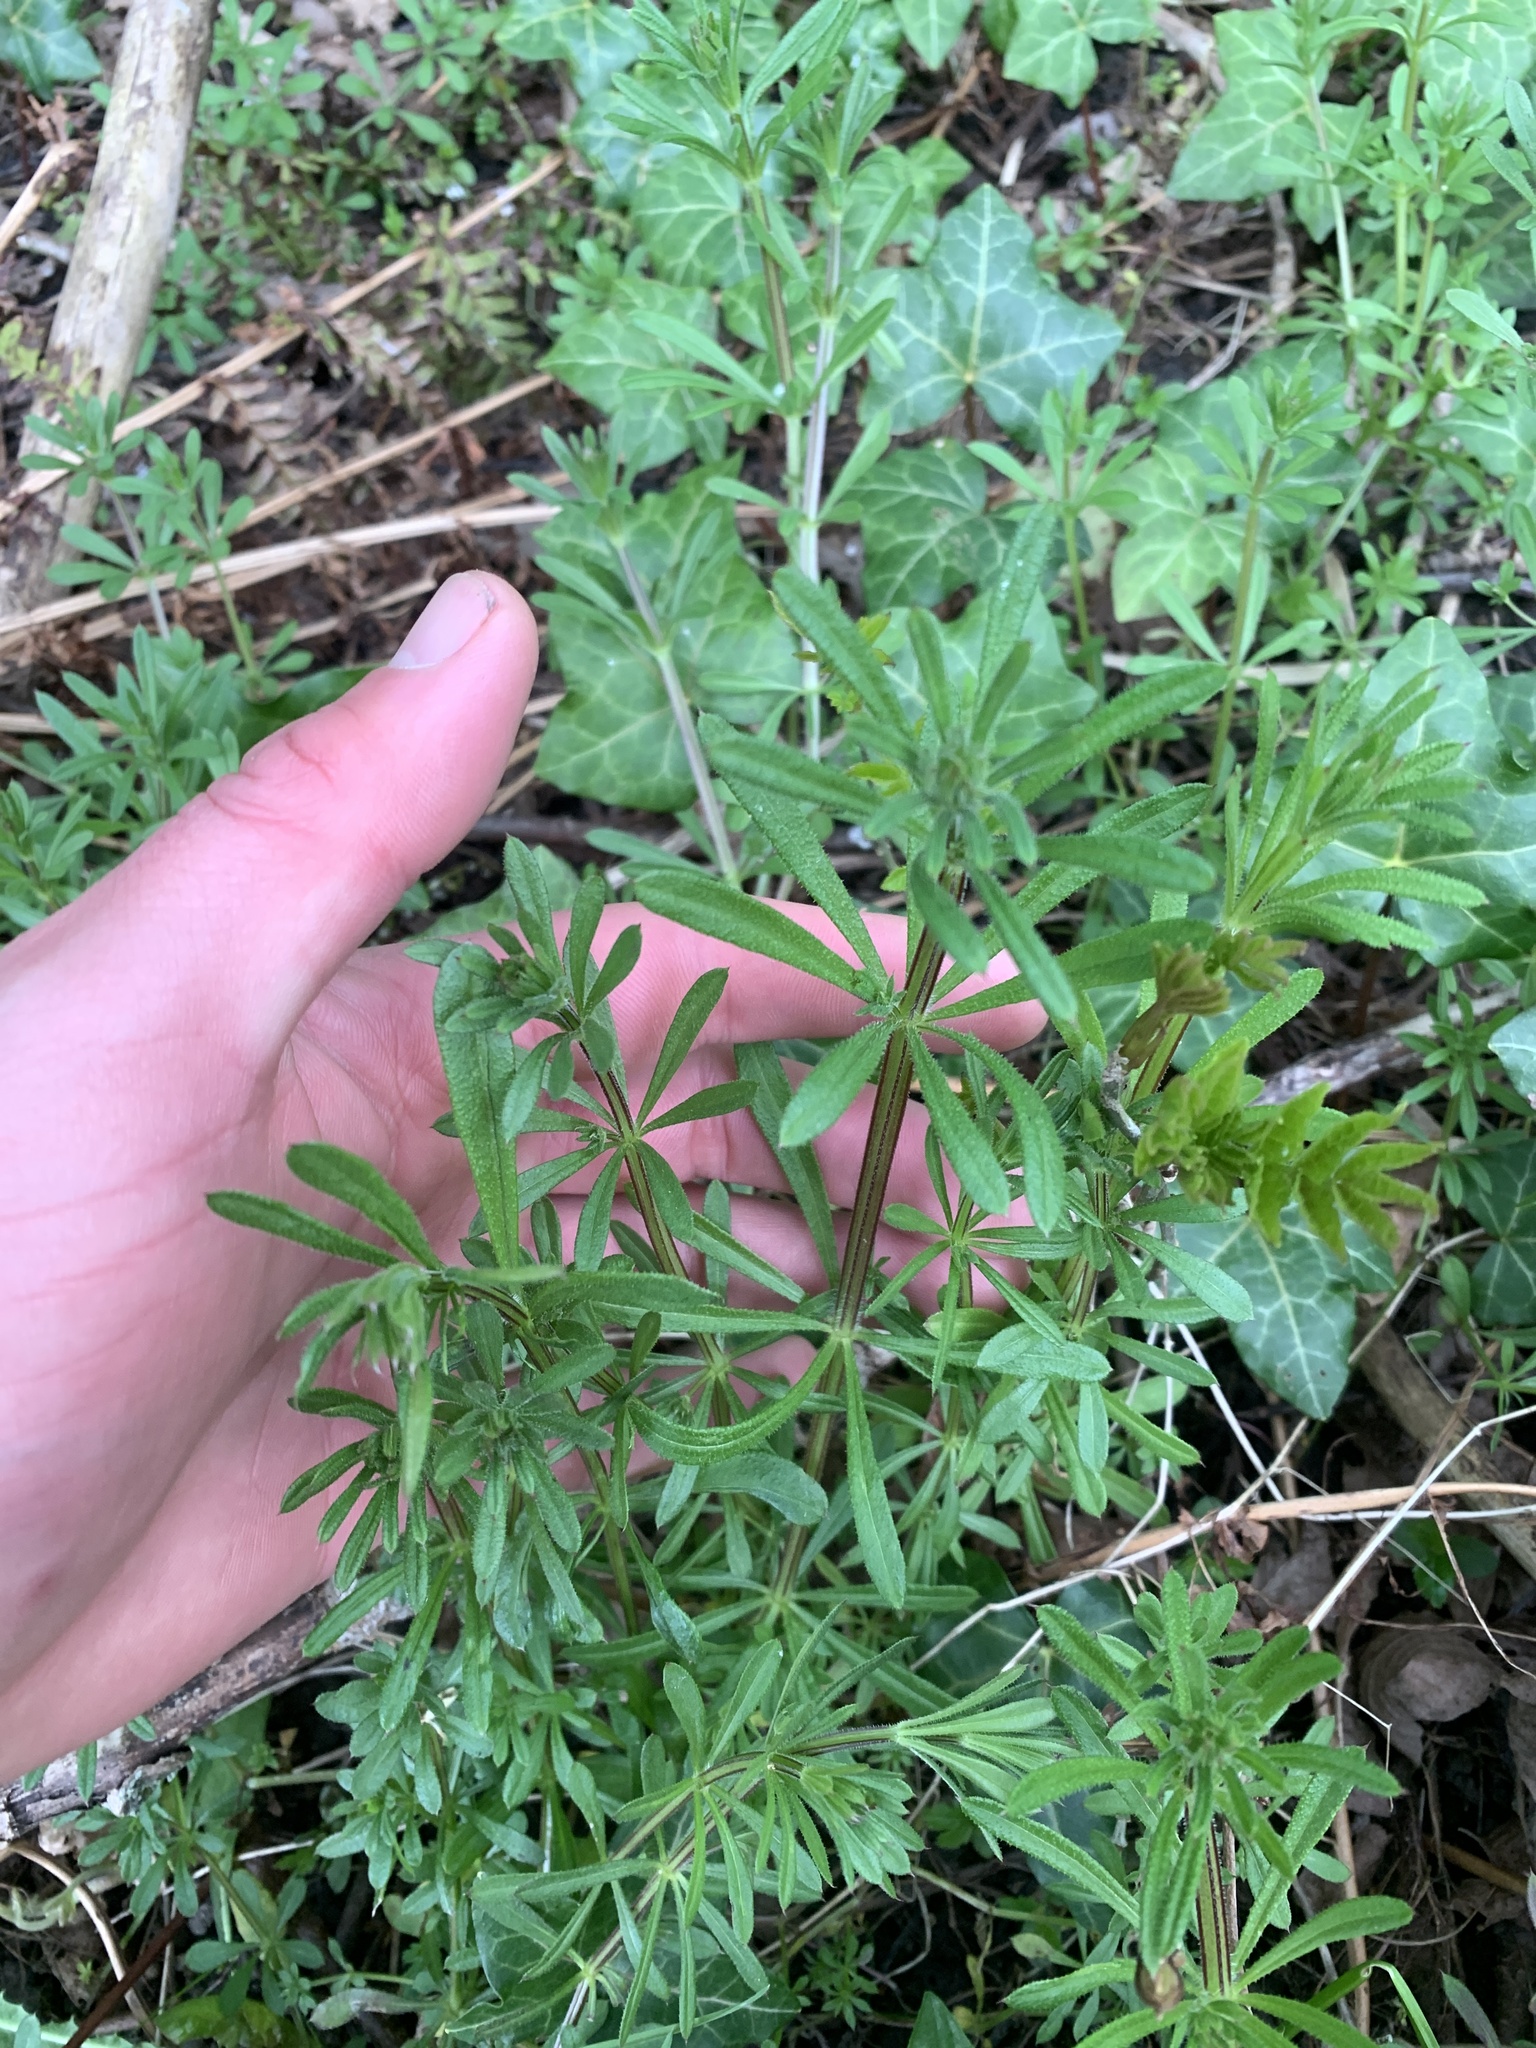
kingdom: Plantae
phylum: Tracheophyta
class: Magnoliopsida
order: Gentianales
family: Rubiaceae
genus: Galium
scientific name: Galium aparine
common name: Cleavers
